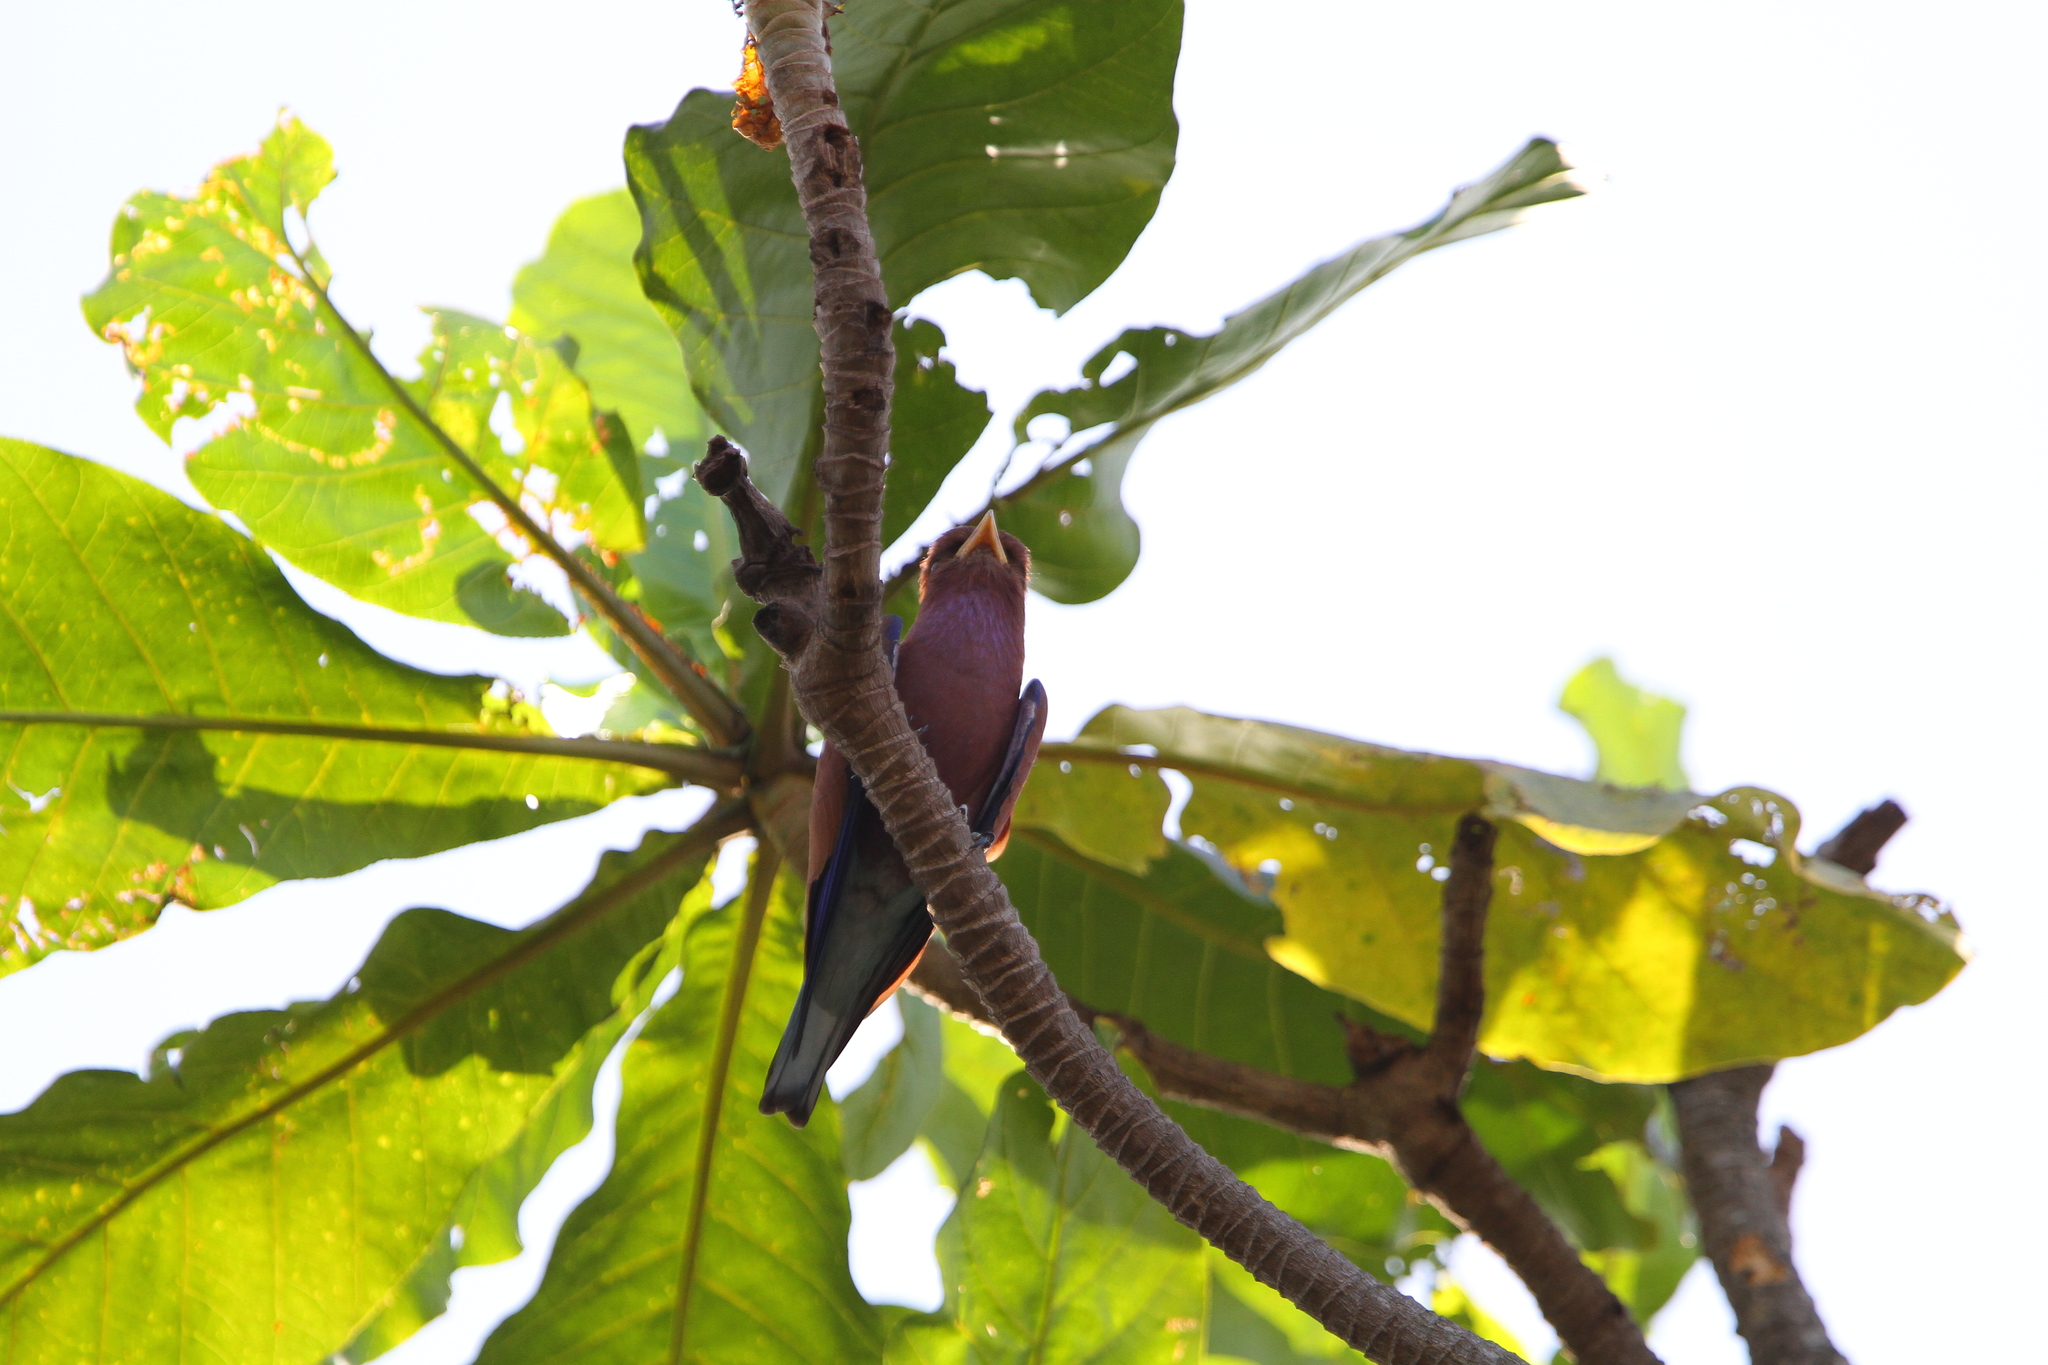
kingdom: Animalia
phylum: Chordata
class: Aves
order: Coraciiformes
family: Coraciidae
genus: Eurystomus
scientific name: Eurystomus glaucurus
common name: Broad-billed roller
